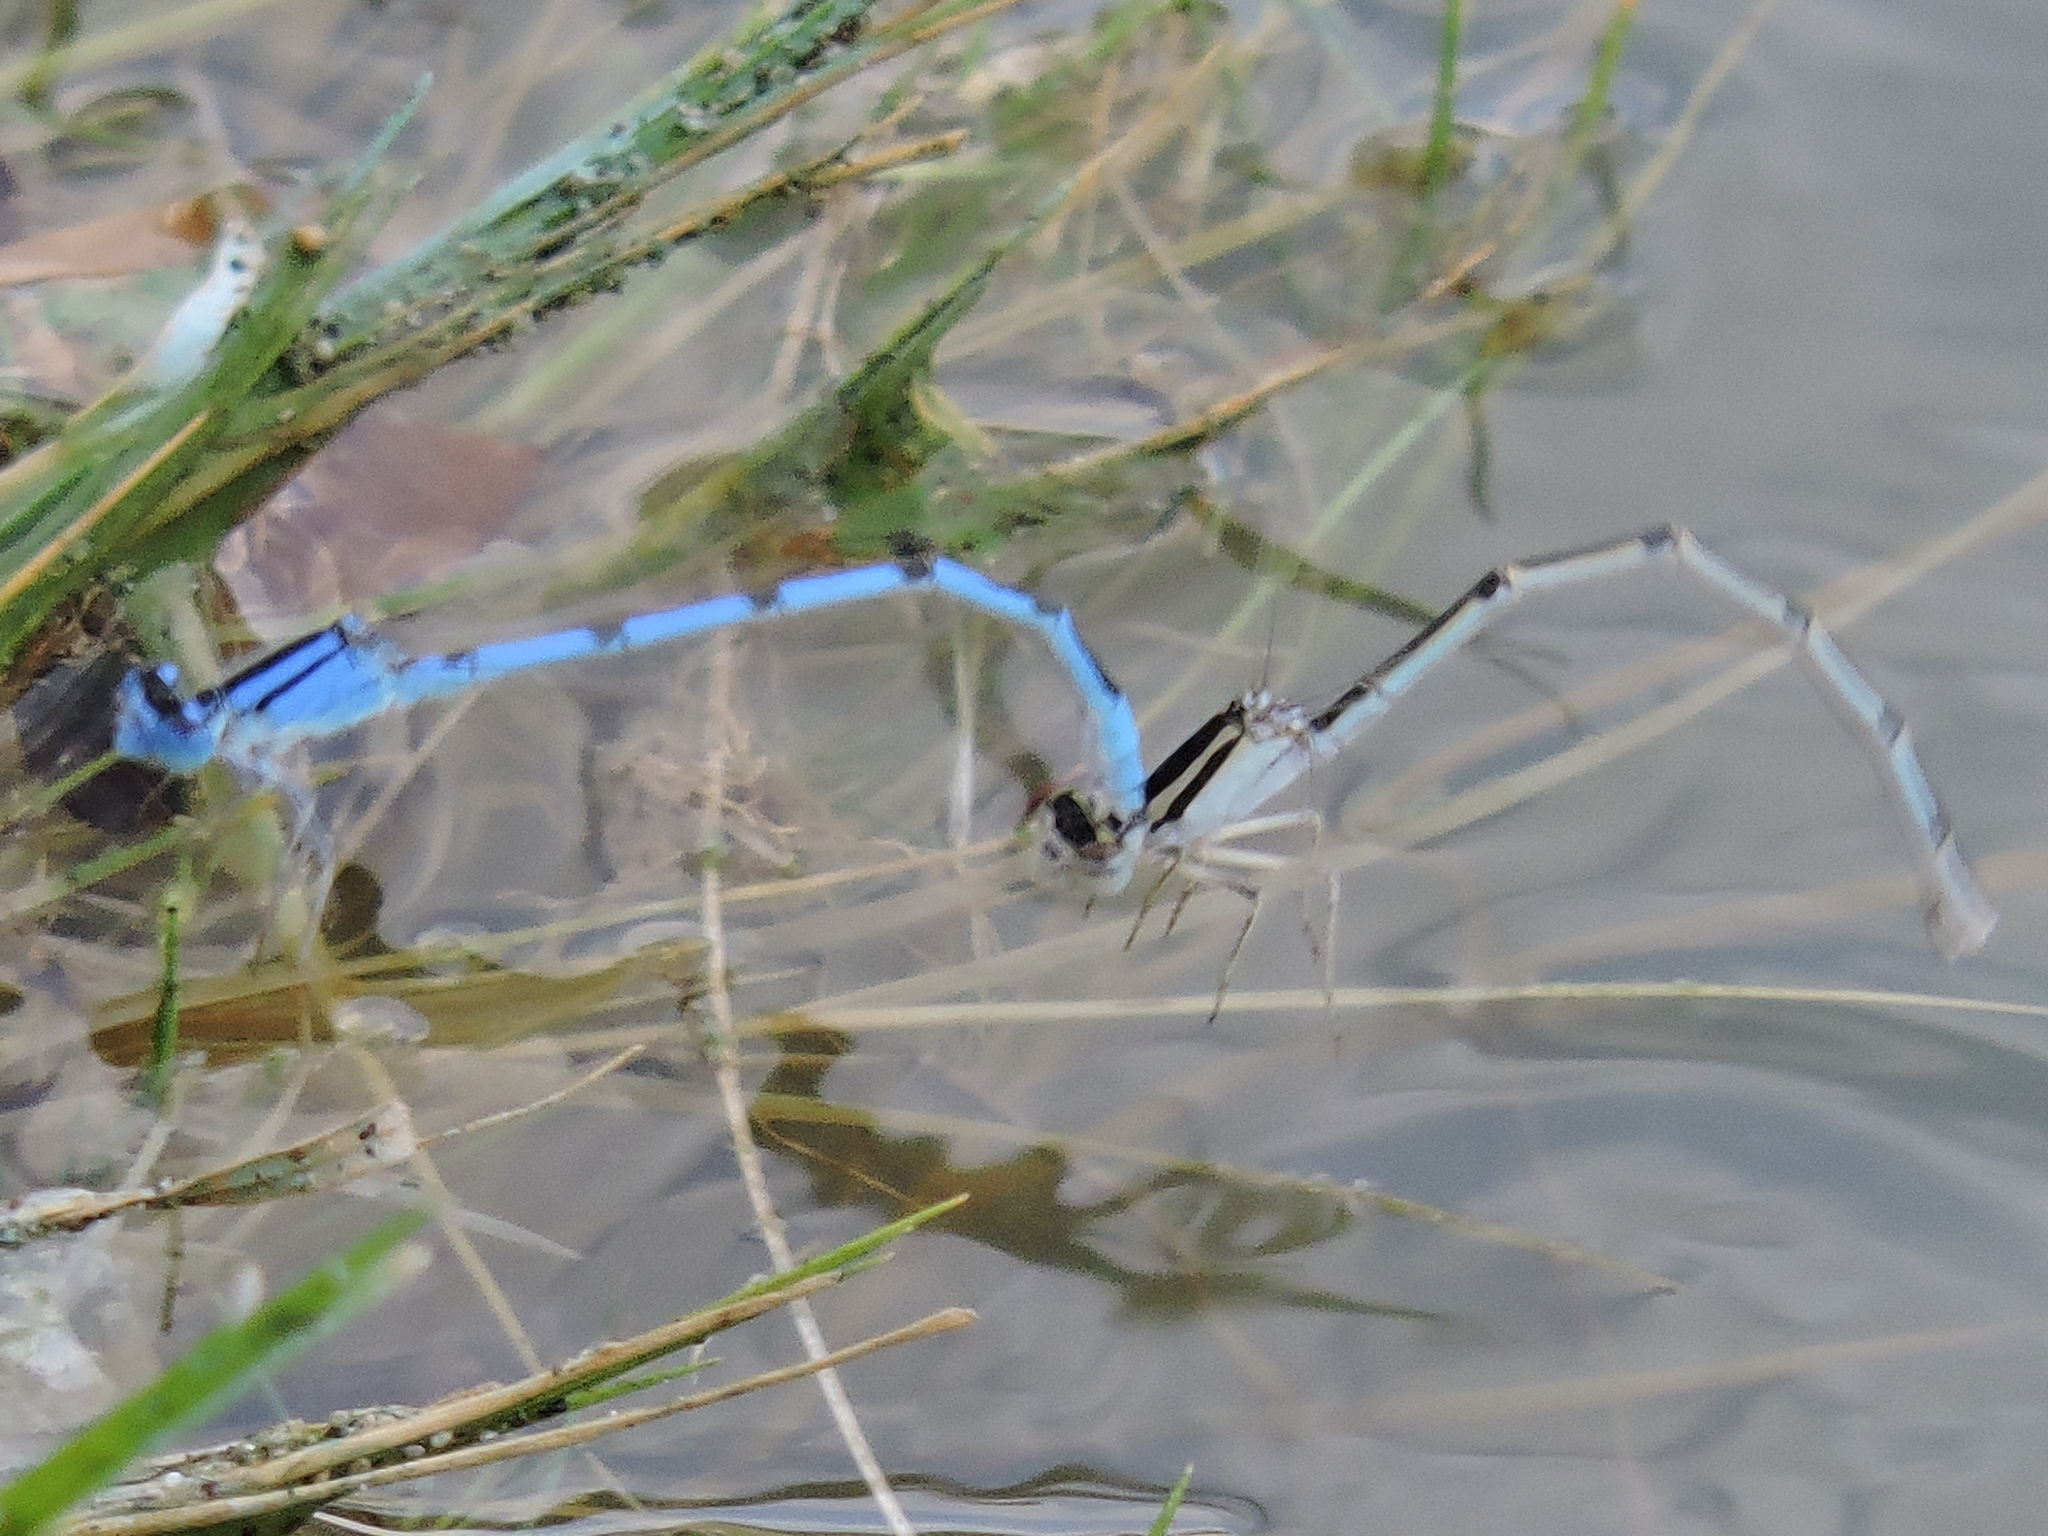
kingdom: Animalia
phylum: Arthropoda
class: Insecta
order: Odonata
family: Coenagrionidae
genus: Enallagma
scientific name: Enallagma civile
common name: Damselfly
